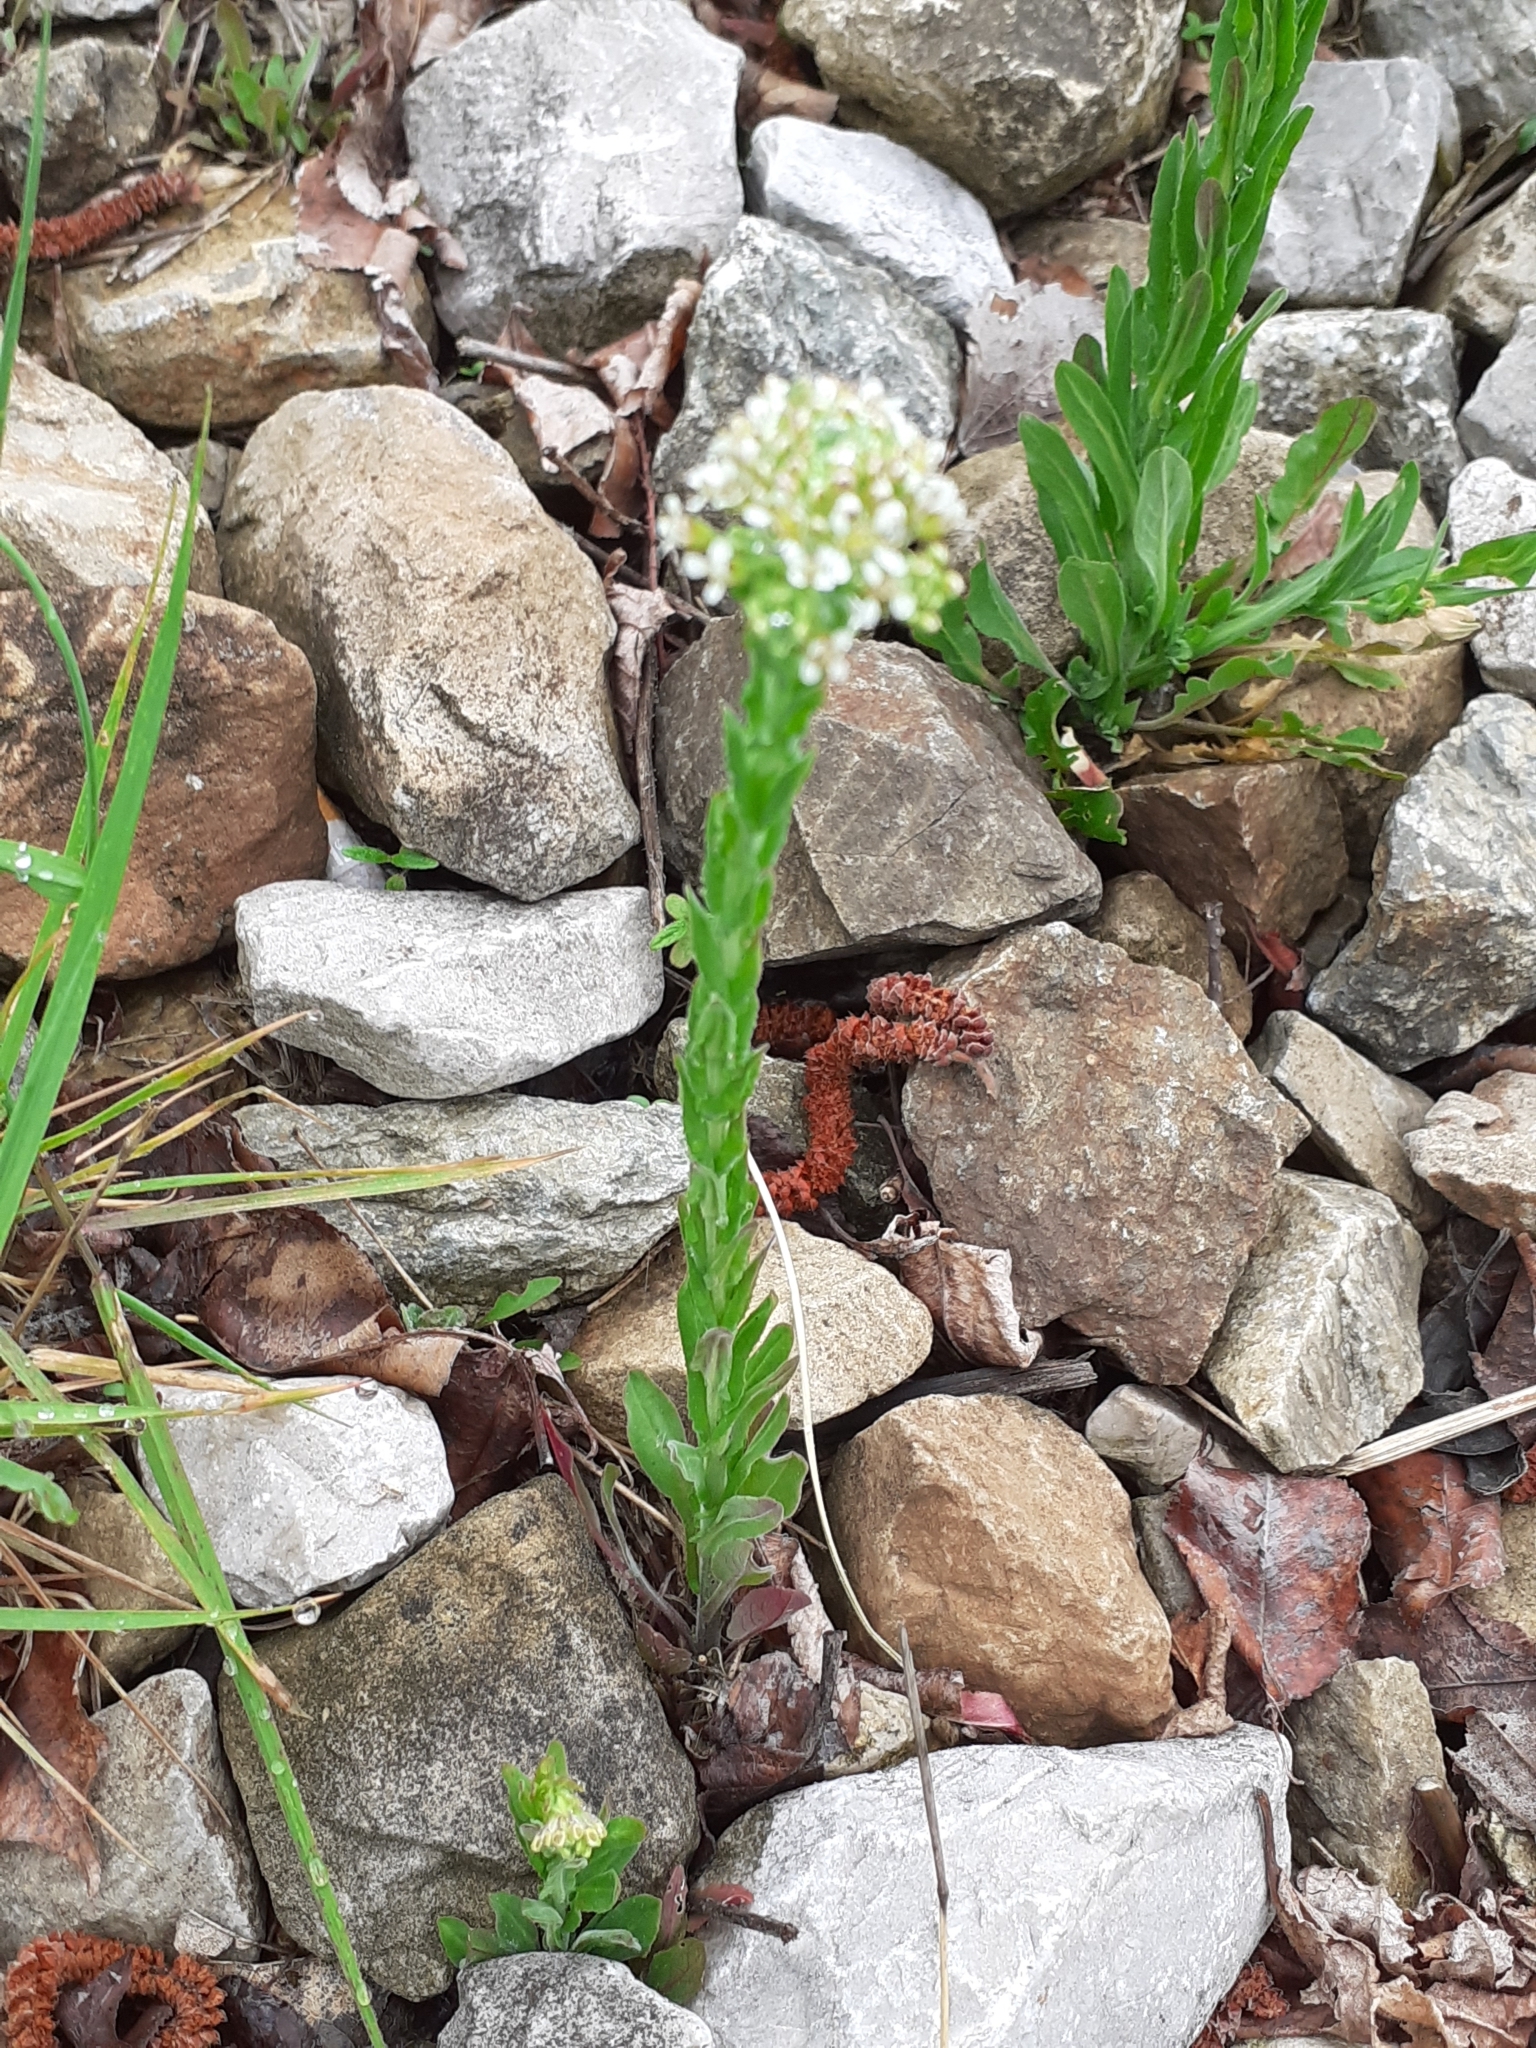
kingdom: Plantae
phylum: Tracheophyta
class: Magnoliopsida
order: Brassicales
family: Brassicaceae
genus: Lepidium
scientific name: Lepidium campestre
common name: Field pepperwort
